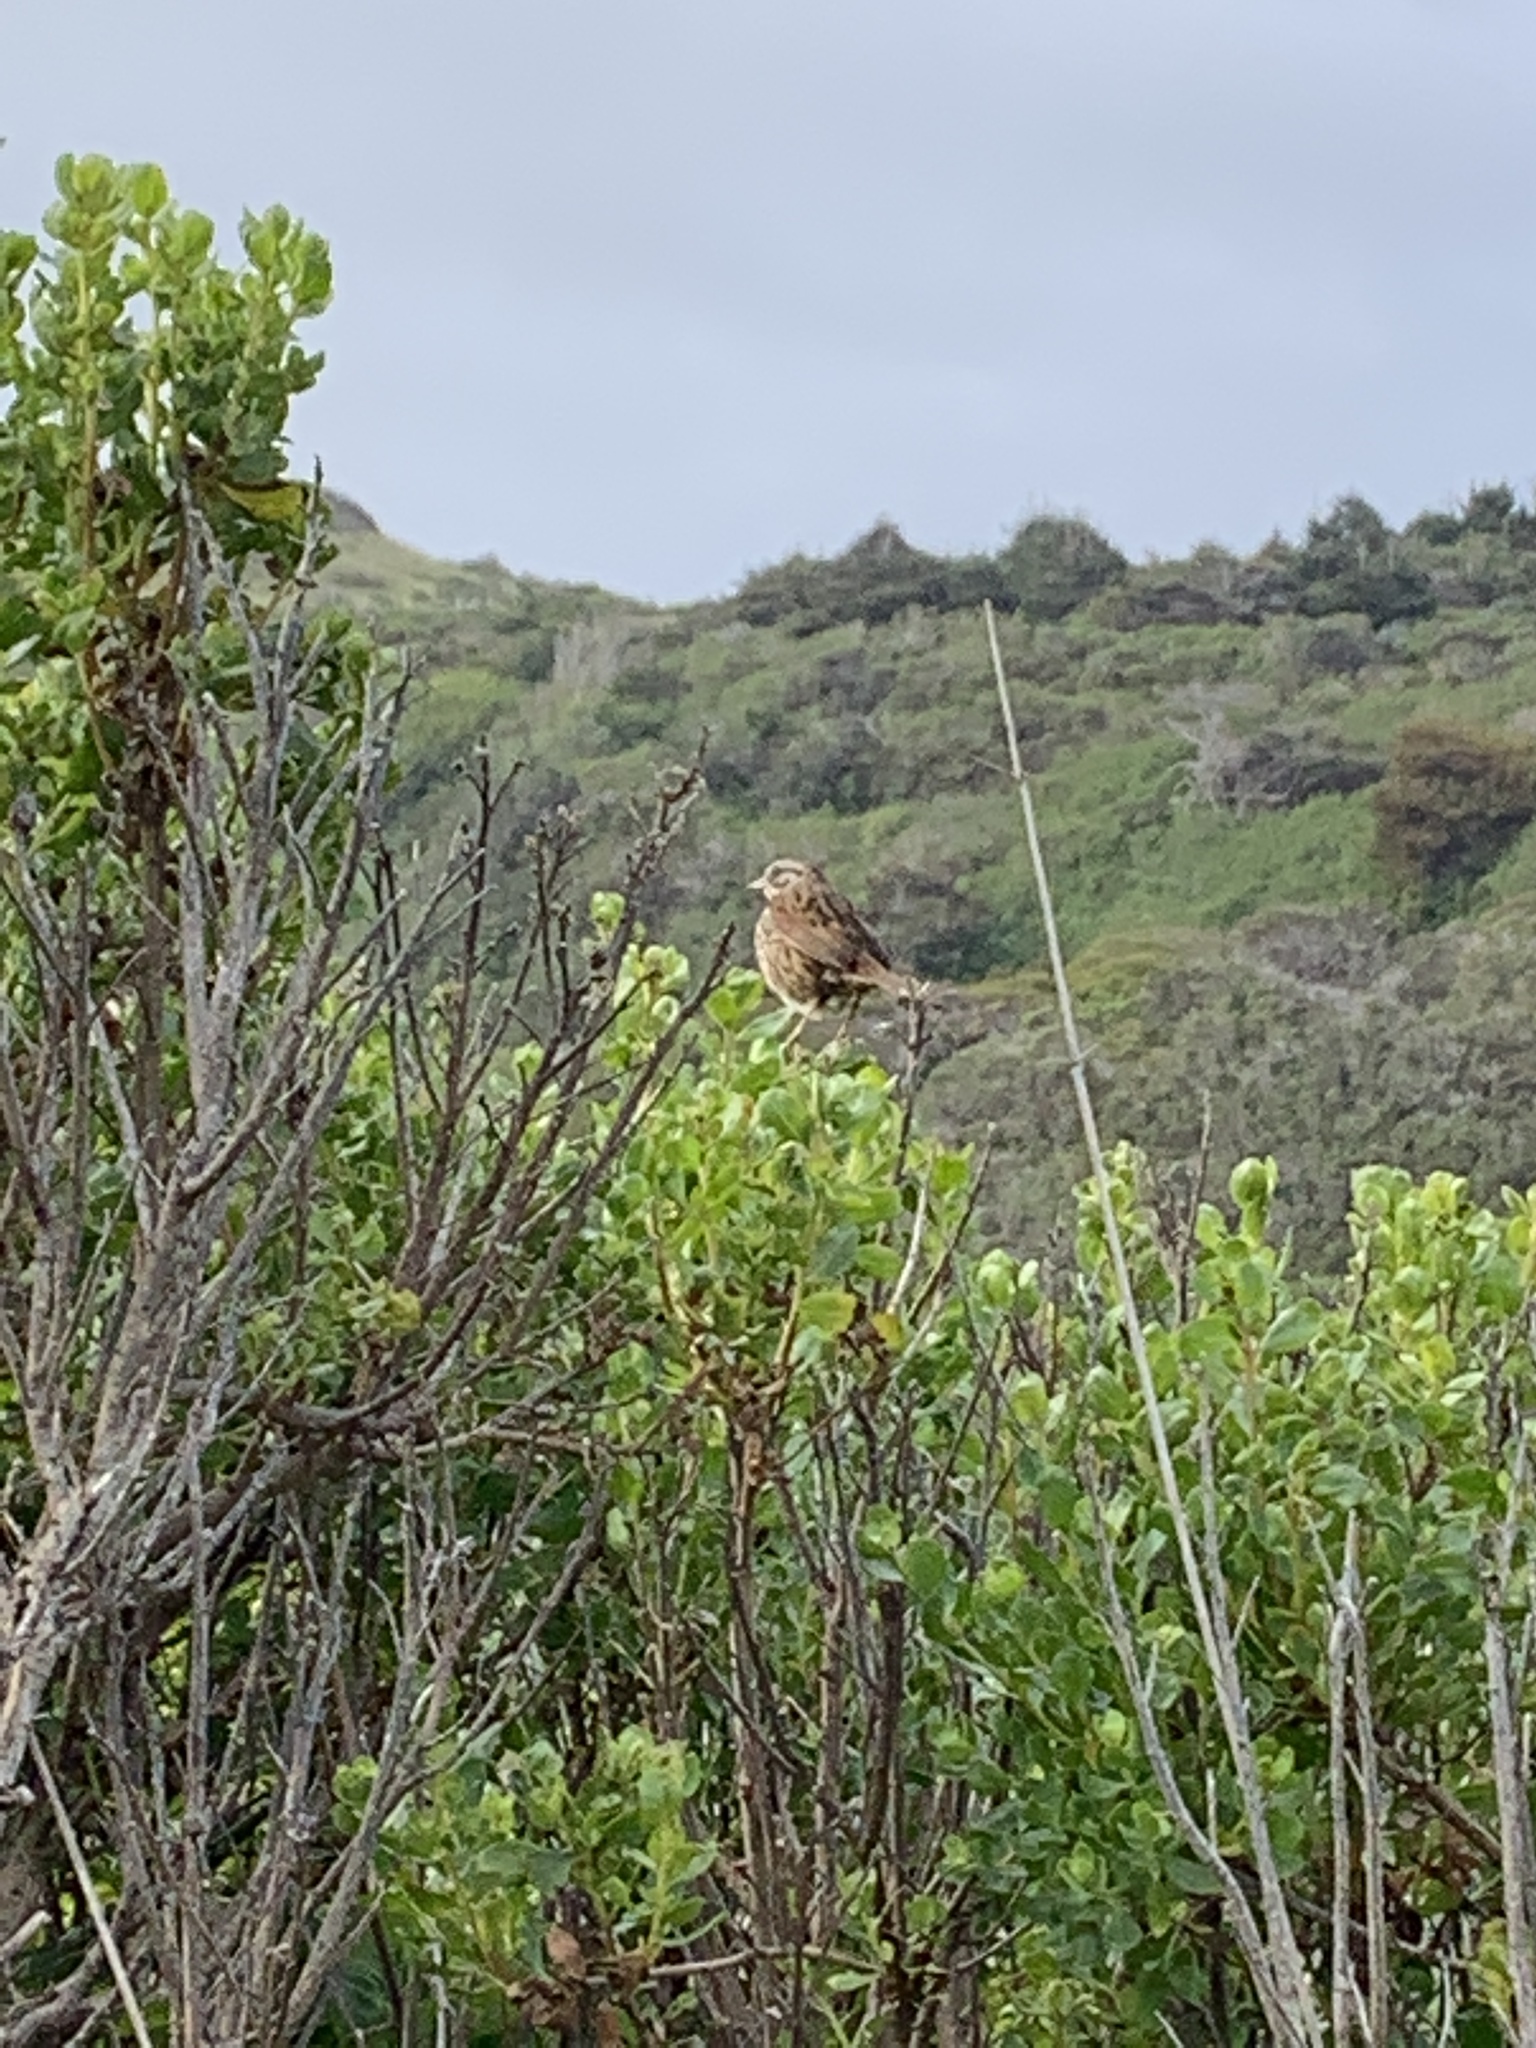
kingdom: Animalia
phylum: Chordata
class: Aves
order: Passeriformes
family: Passerellidae
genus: Melospiza
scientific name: Melospiza melodia
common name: Song sparrow
